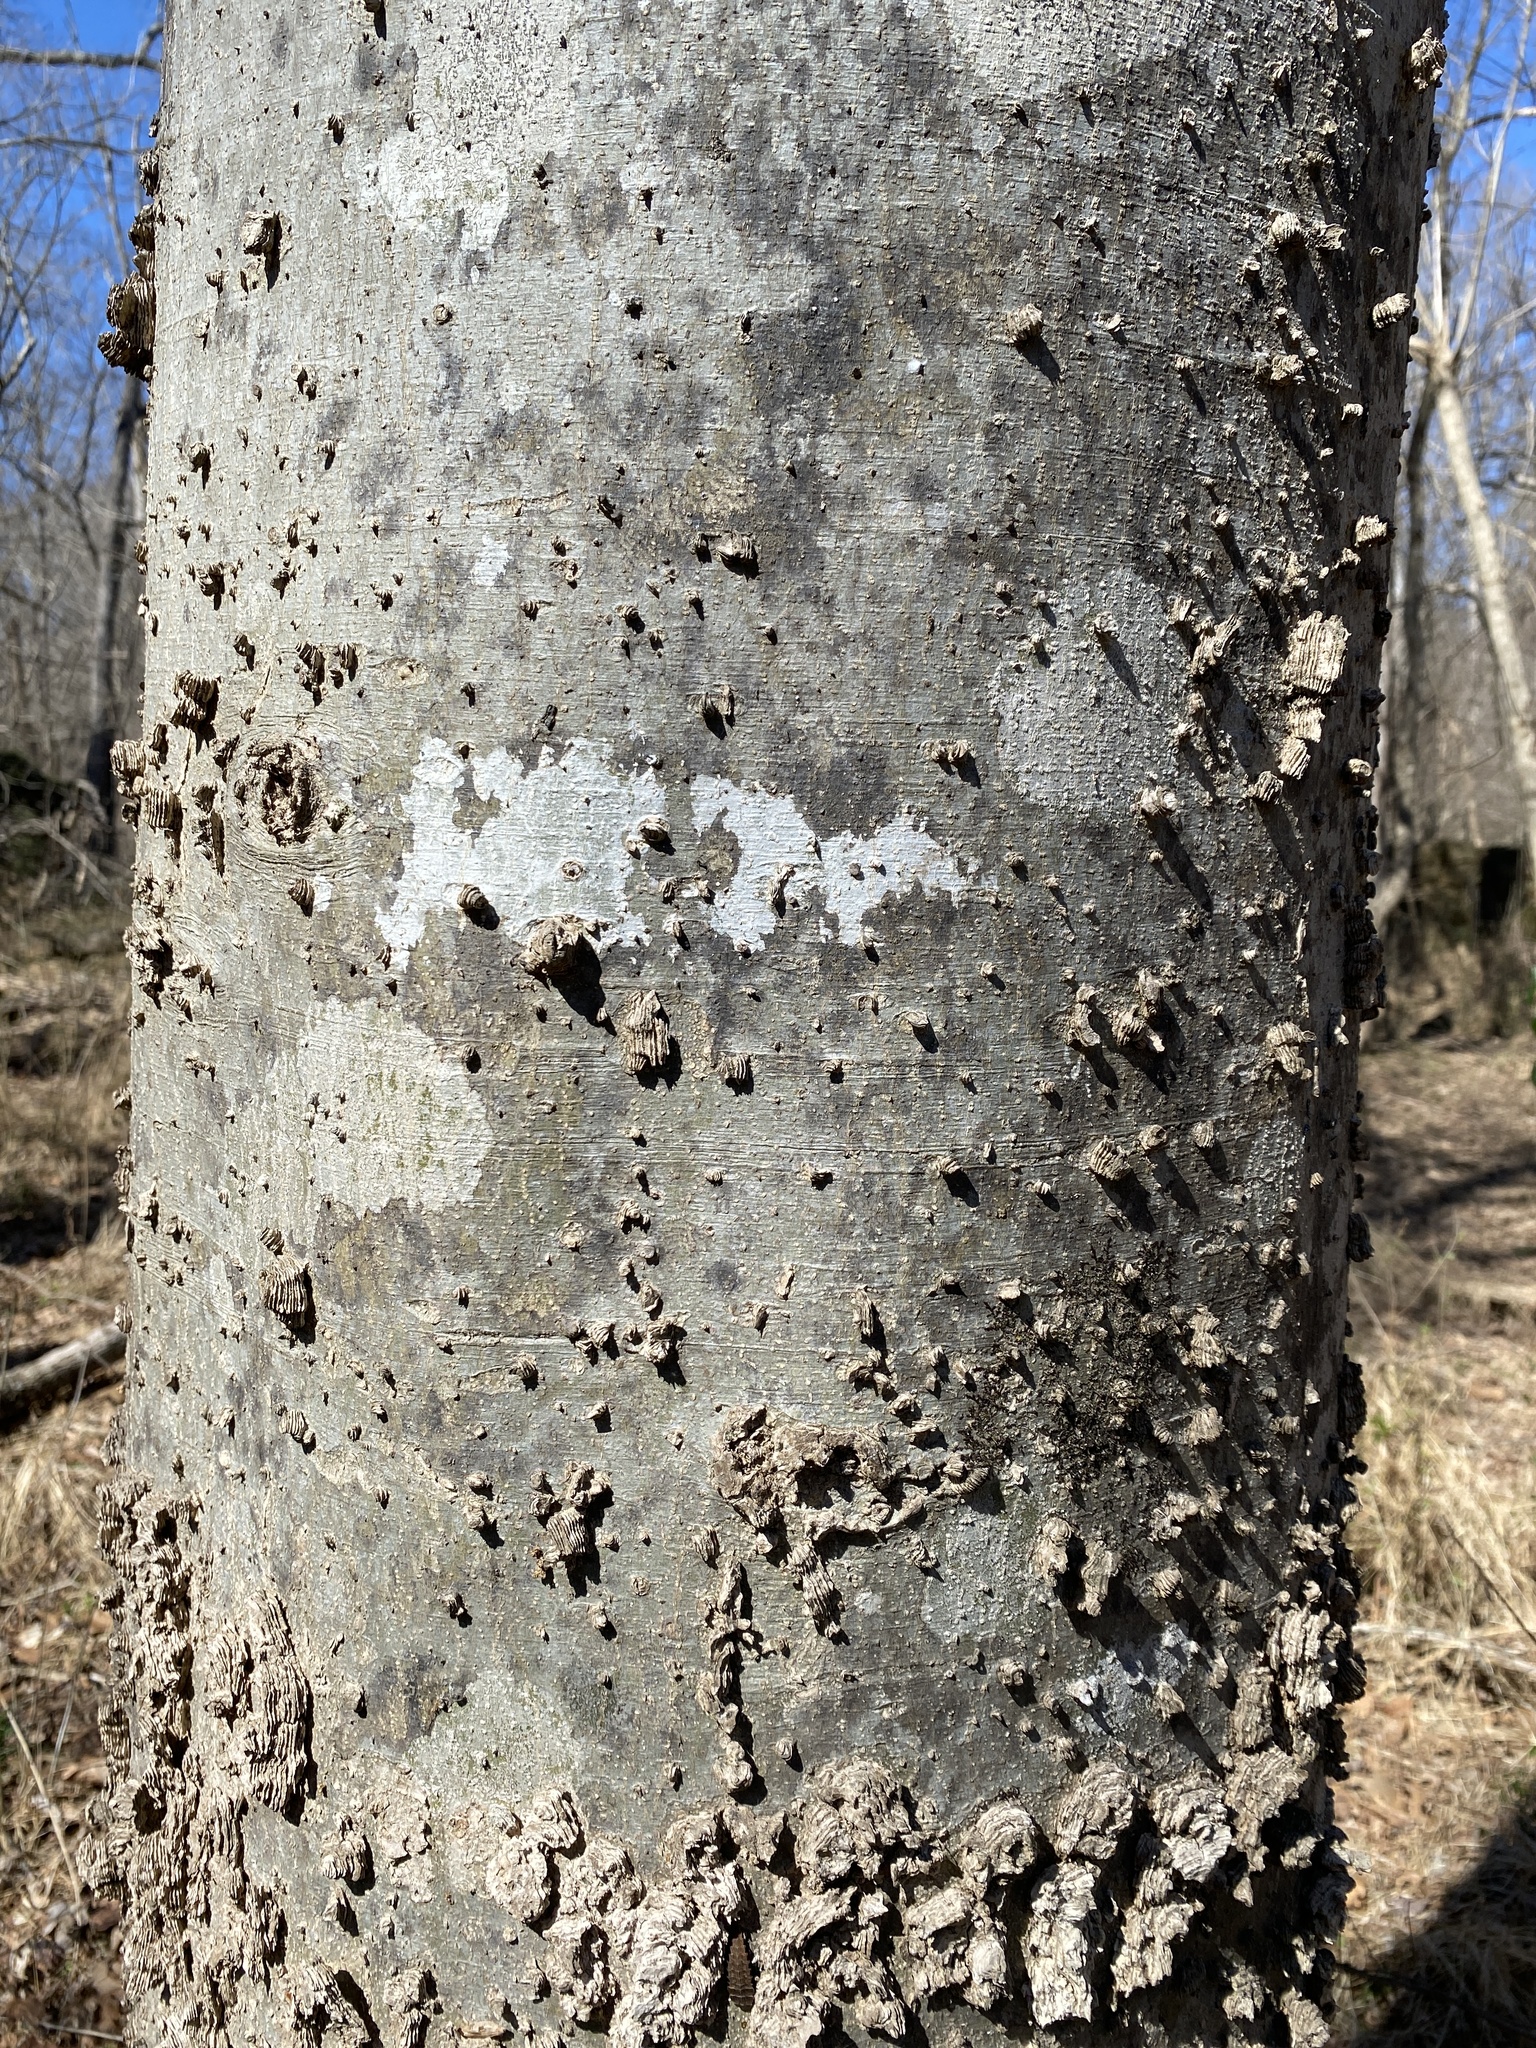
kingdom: Plantae
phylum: Tracheophyta
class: Magnoliopsida
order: Rosales
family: Cannabaceae
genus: Celtis
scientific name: Celtis laevigata
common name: Sugarberry
